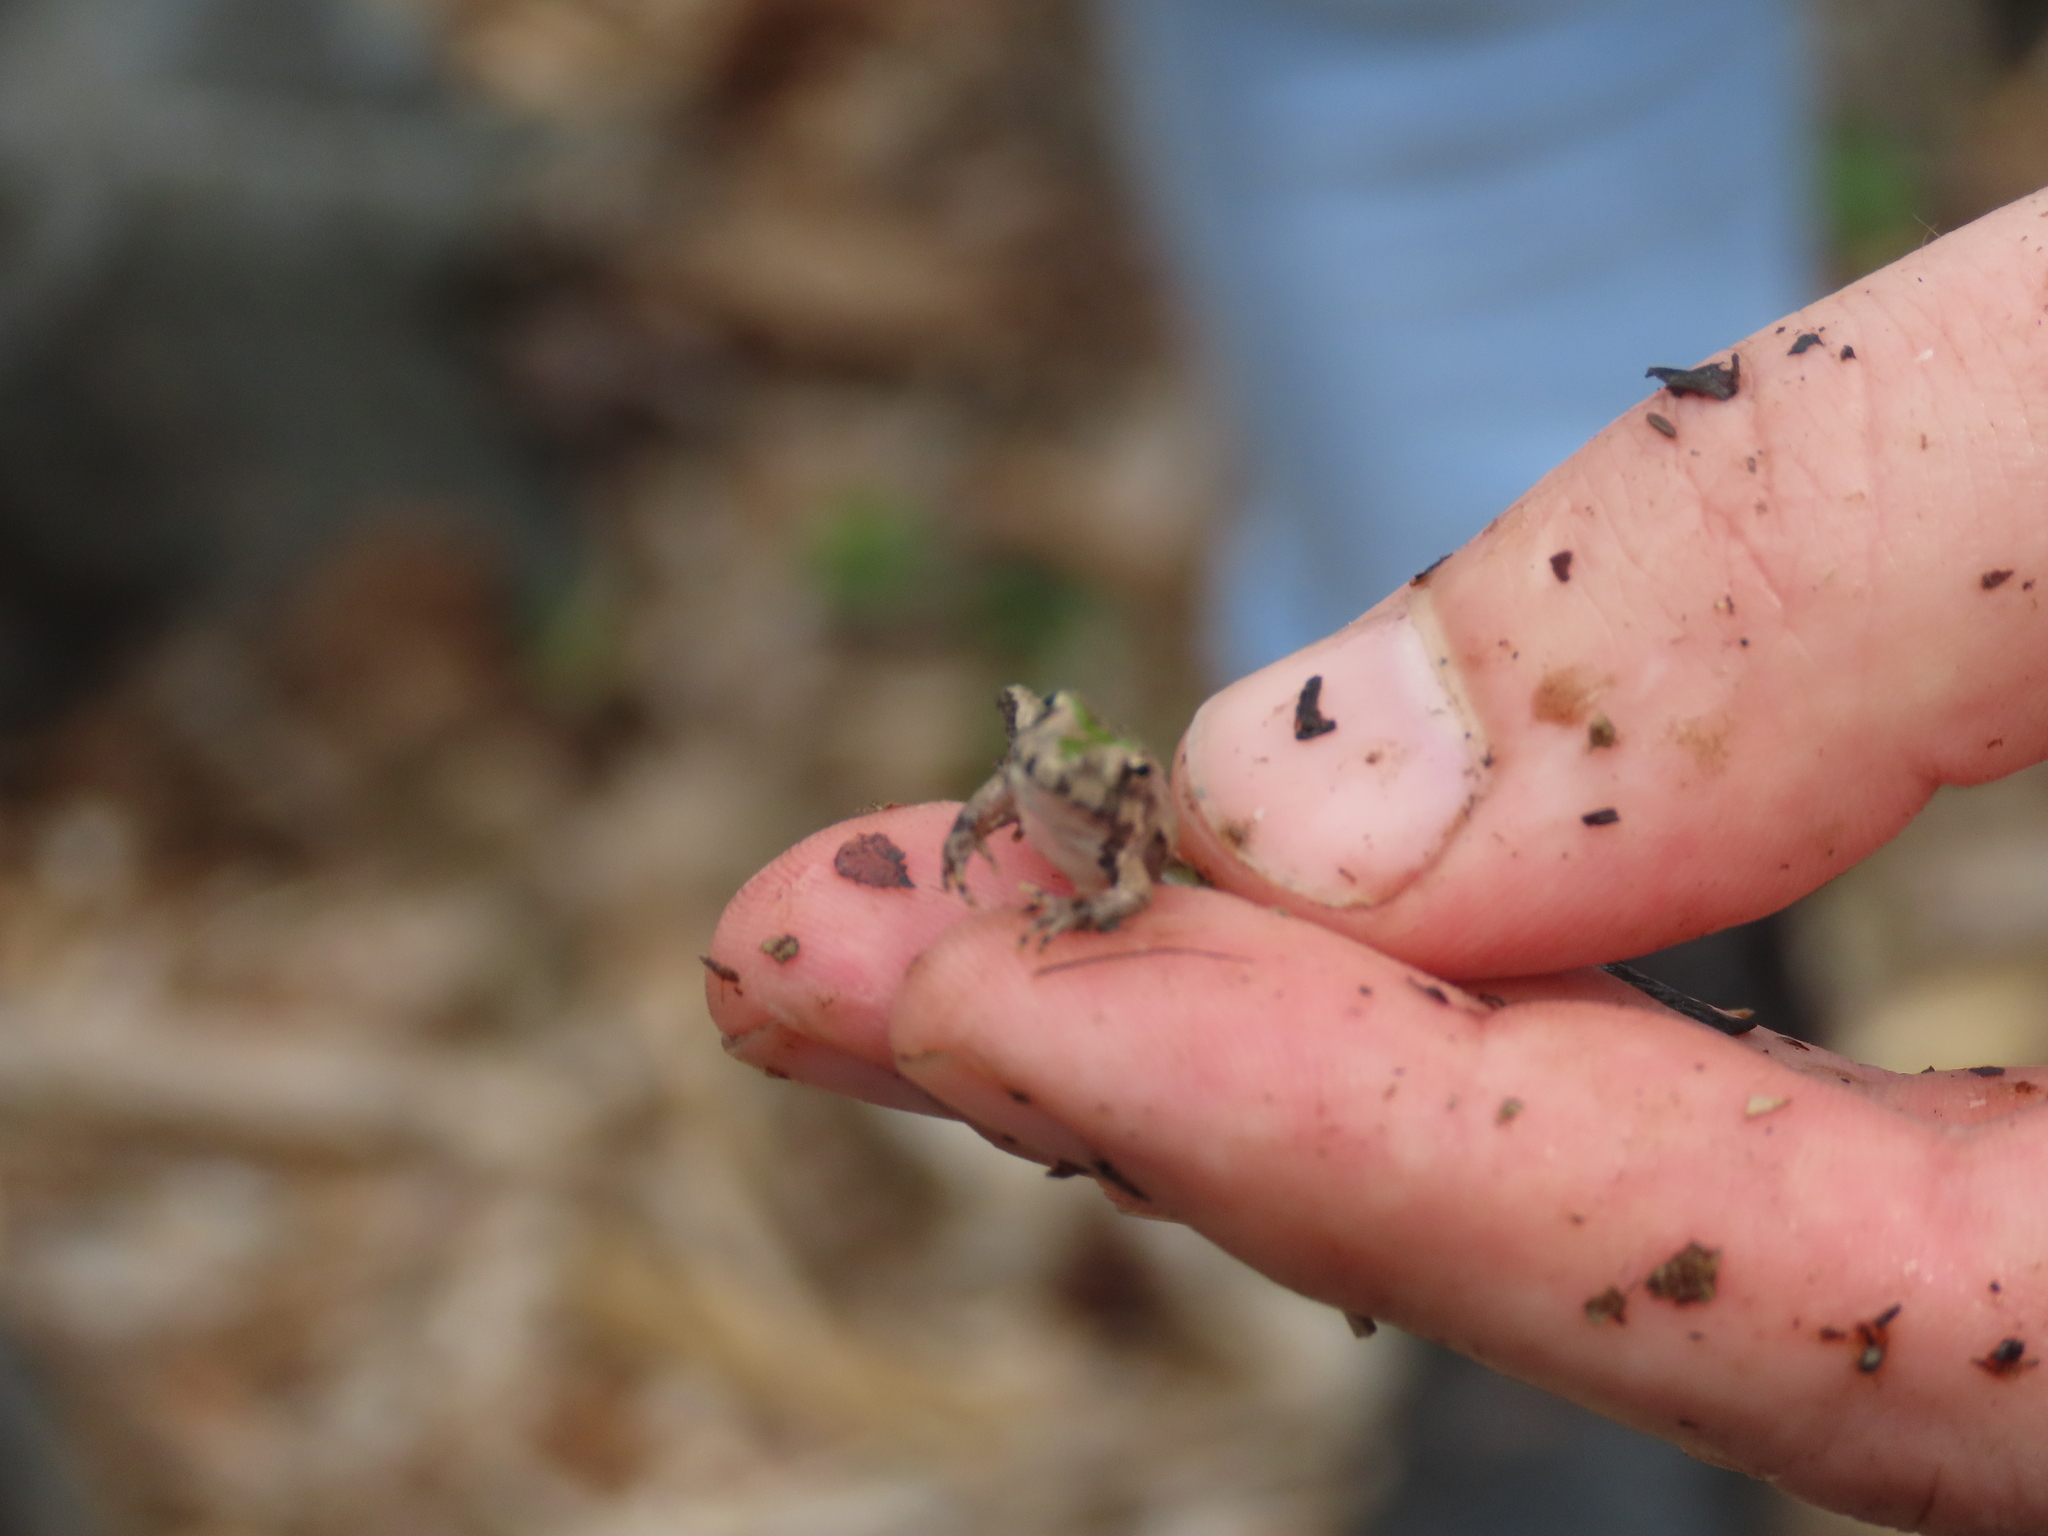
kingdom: Animalia
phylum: Chordata
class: Amphibia
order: Anura
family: Hylidae
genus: Acris
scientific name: Acris crepitans
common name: Northern cricket frog
